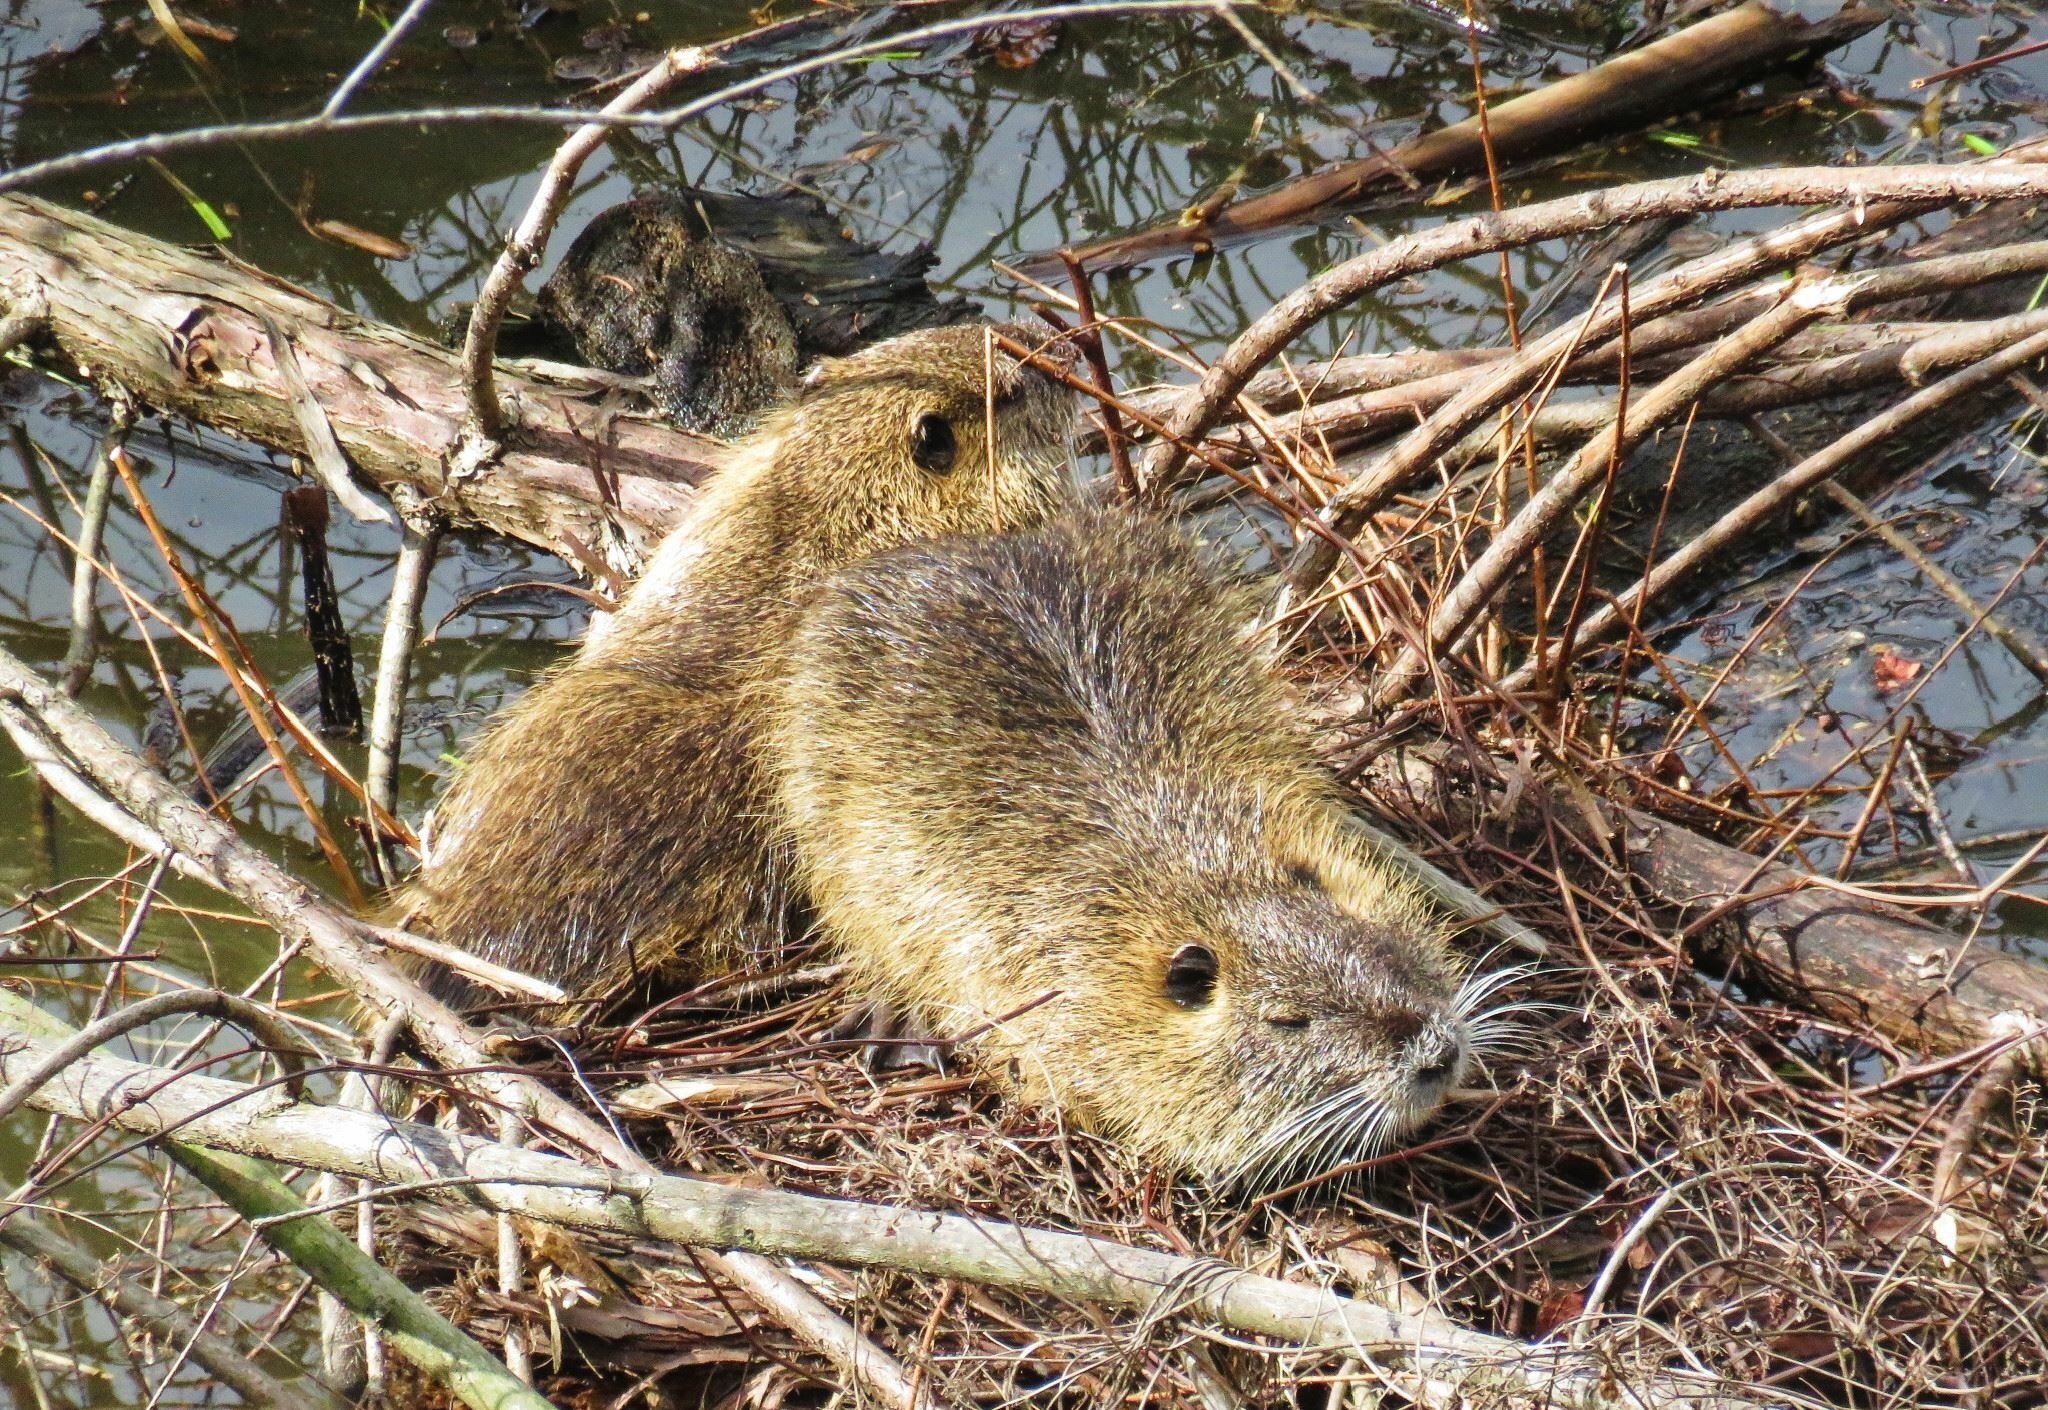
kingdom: Animalia
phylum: Chordata
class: Mammalia
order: Rodentia
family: Myocastoridae
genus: Myocastor
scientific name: Myocastor coypus
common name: Coypu
